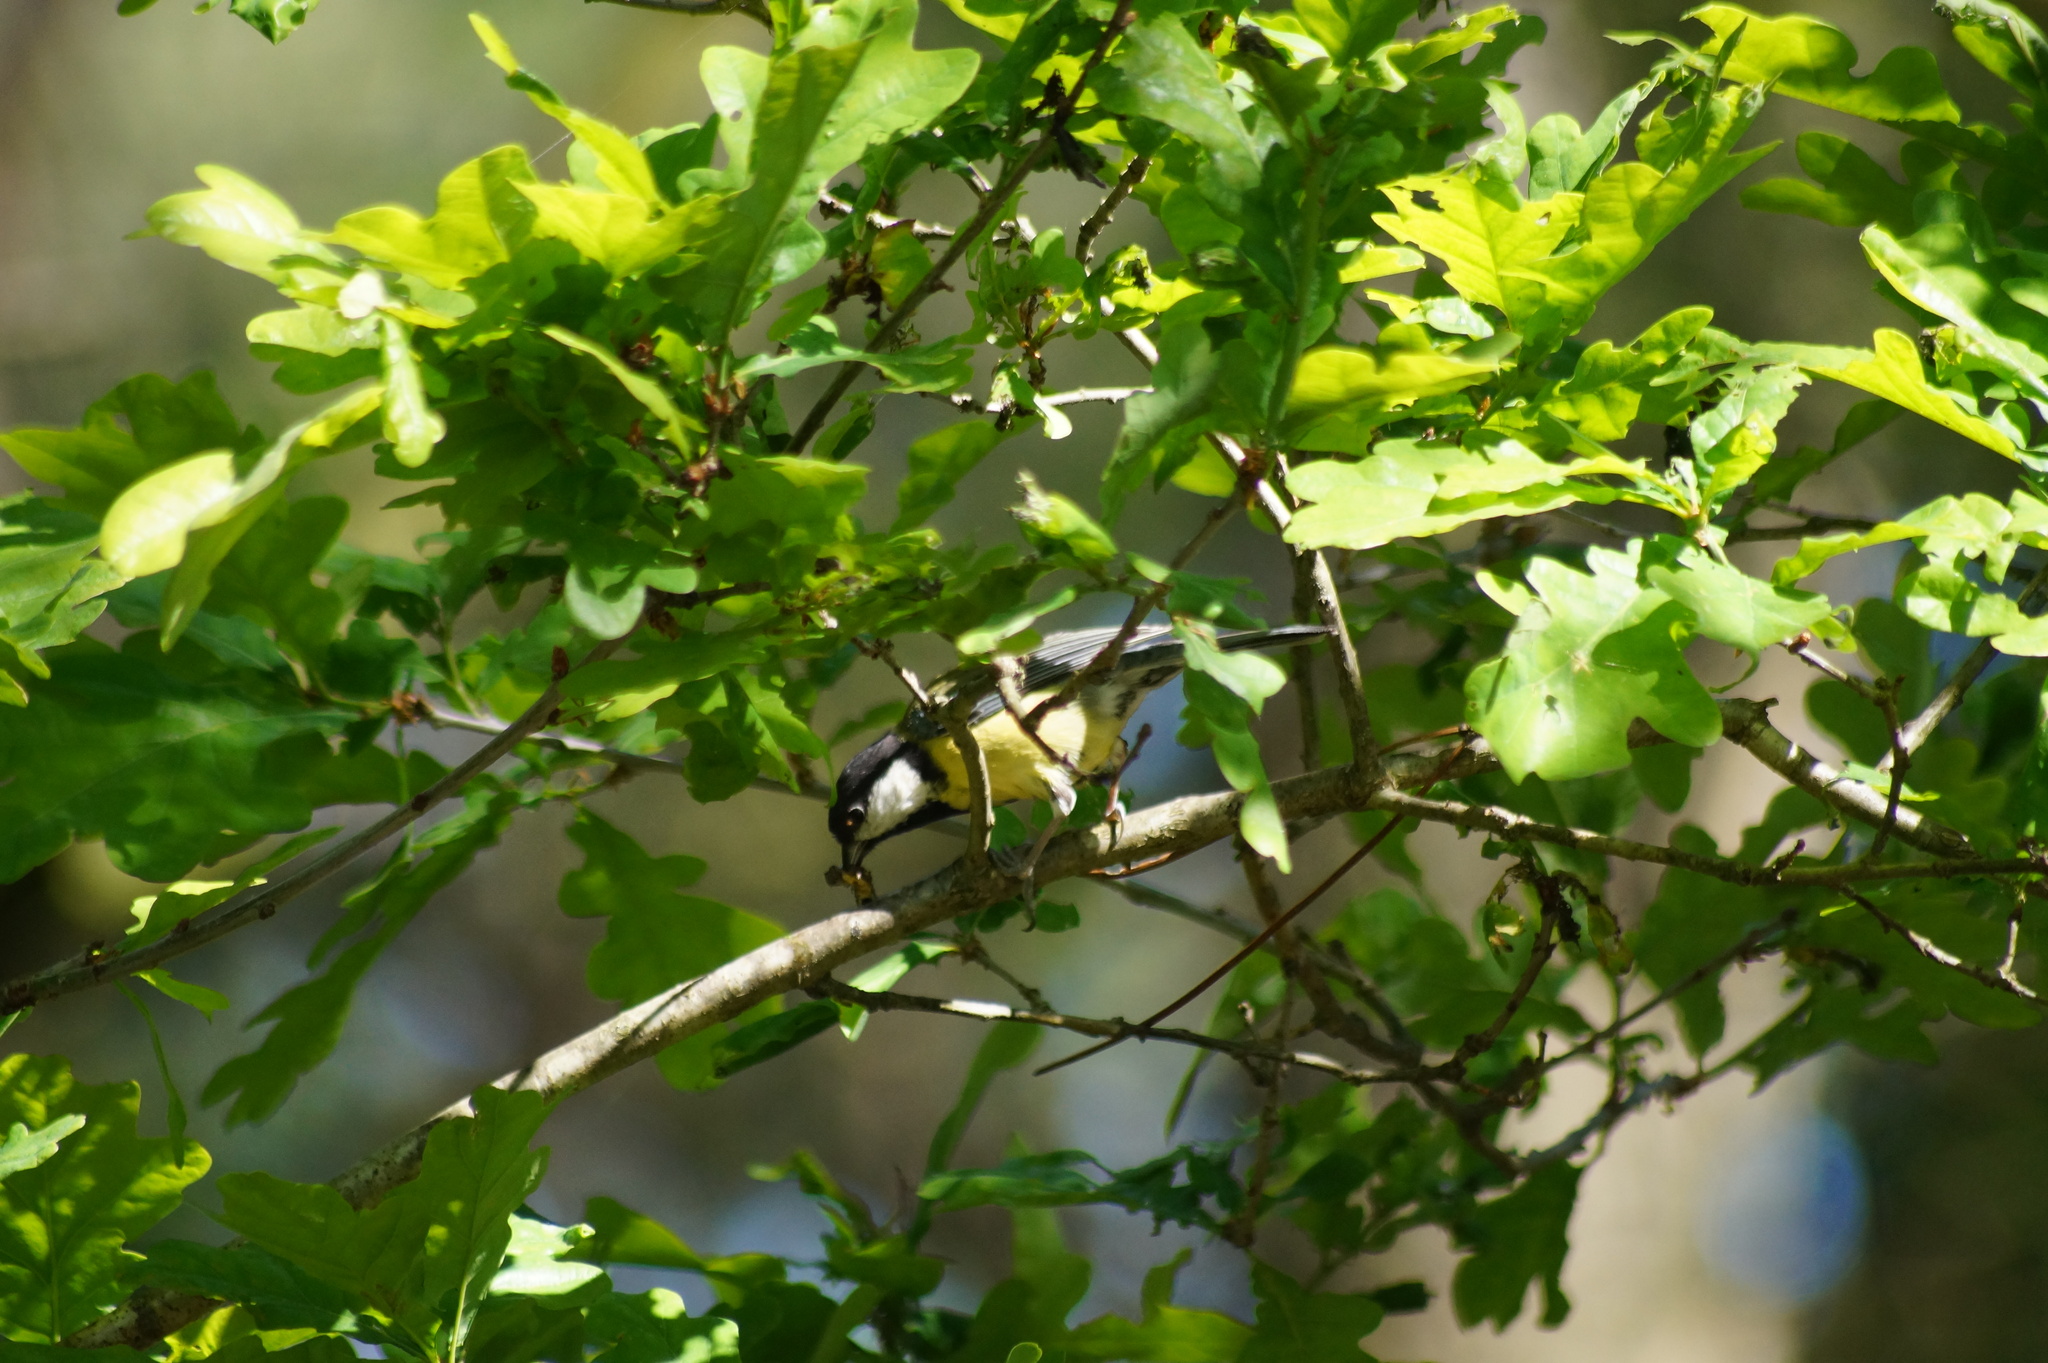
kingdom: Animalia
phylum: Chordata
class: Aves
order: Passeriformes
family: Paridae
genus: Parus
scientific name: Parus major
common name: Great tit
